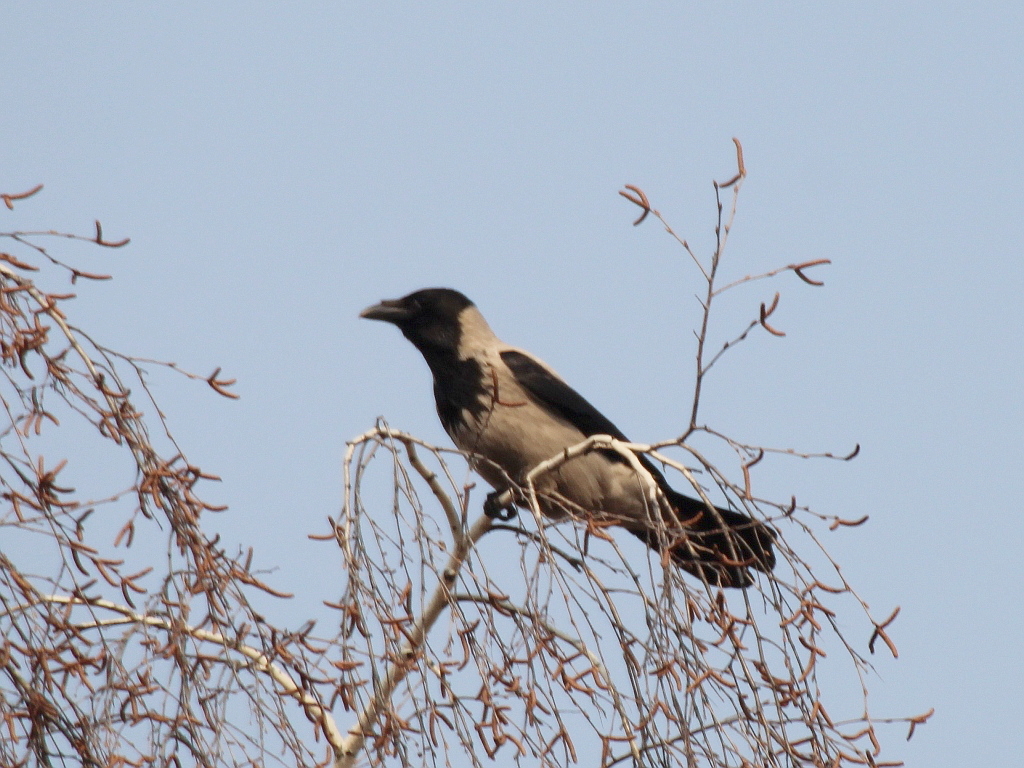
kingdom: Animalia
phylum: Chordata
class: Aves
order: Passeriformes
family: Corvidae
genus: Corvus
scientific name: Corvus cornix
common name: Hooded crow
